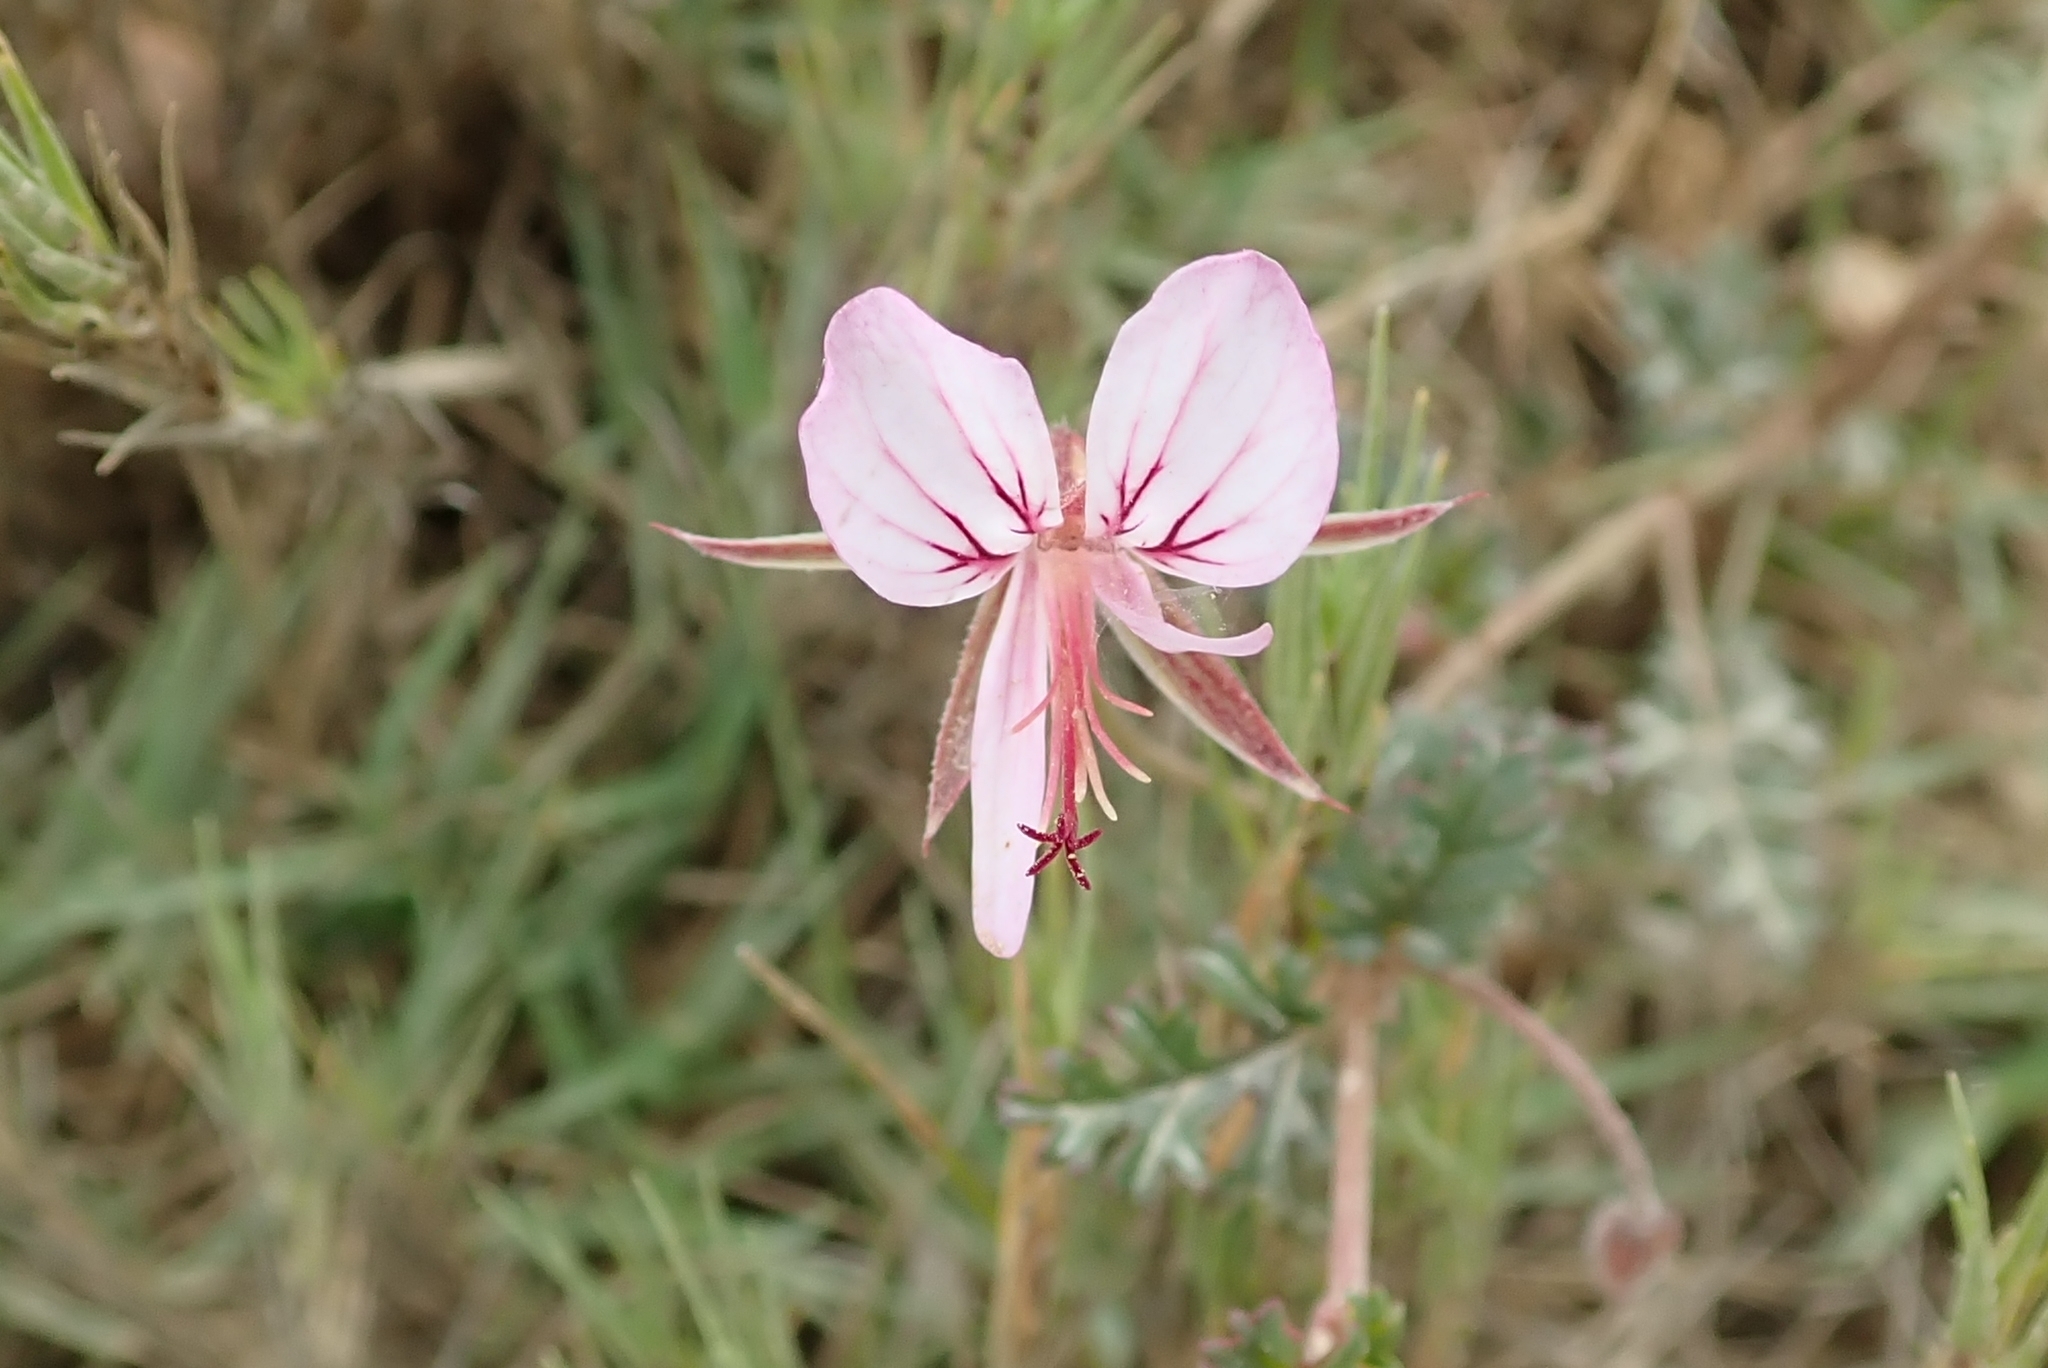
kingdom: Plantae
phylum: Tracheophyta
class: Magnoliopsida
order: Geraniales
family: Geraniaceae
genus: Pelargonium
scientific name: Pelargonium caucalifolium
